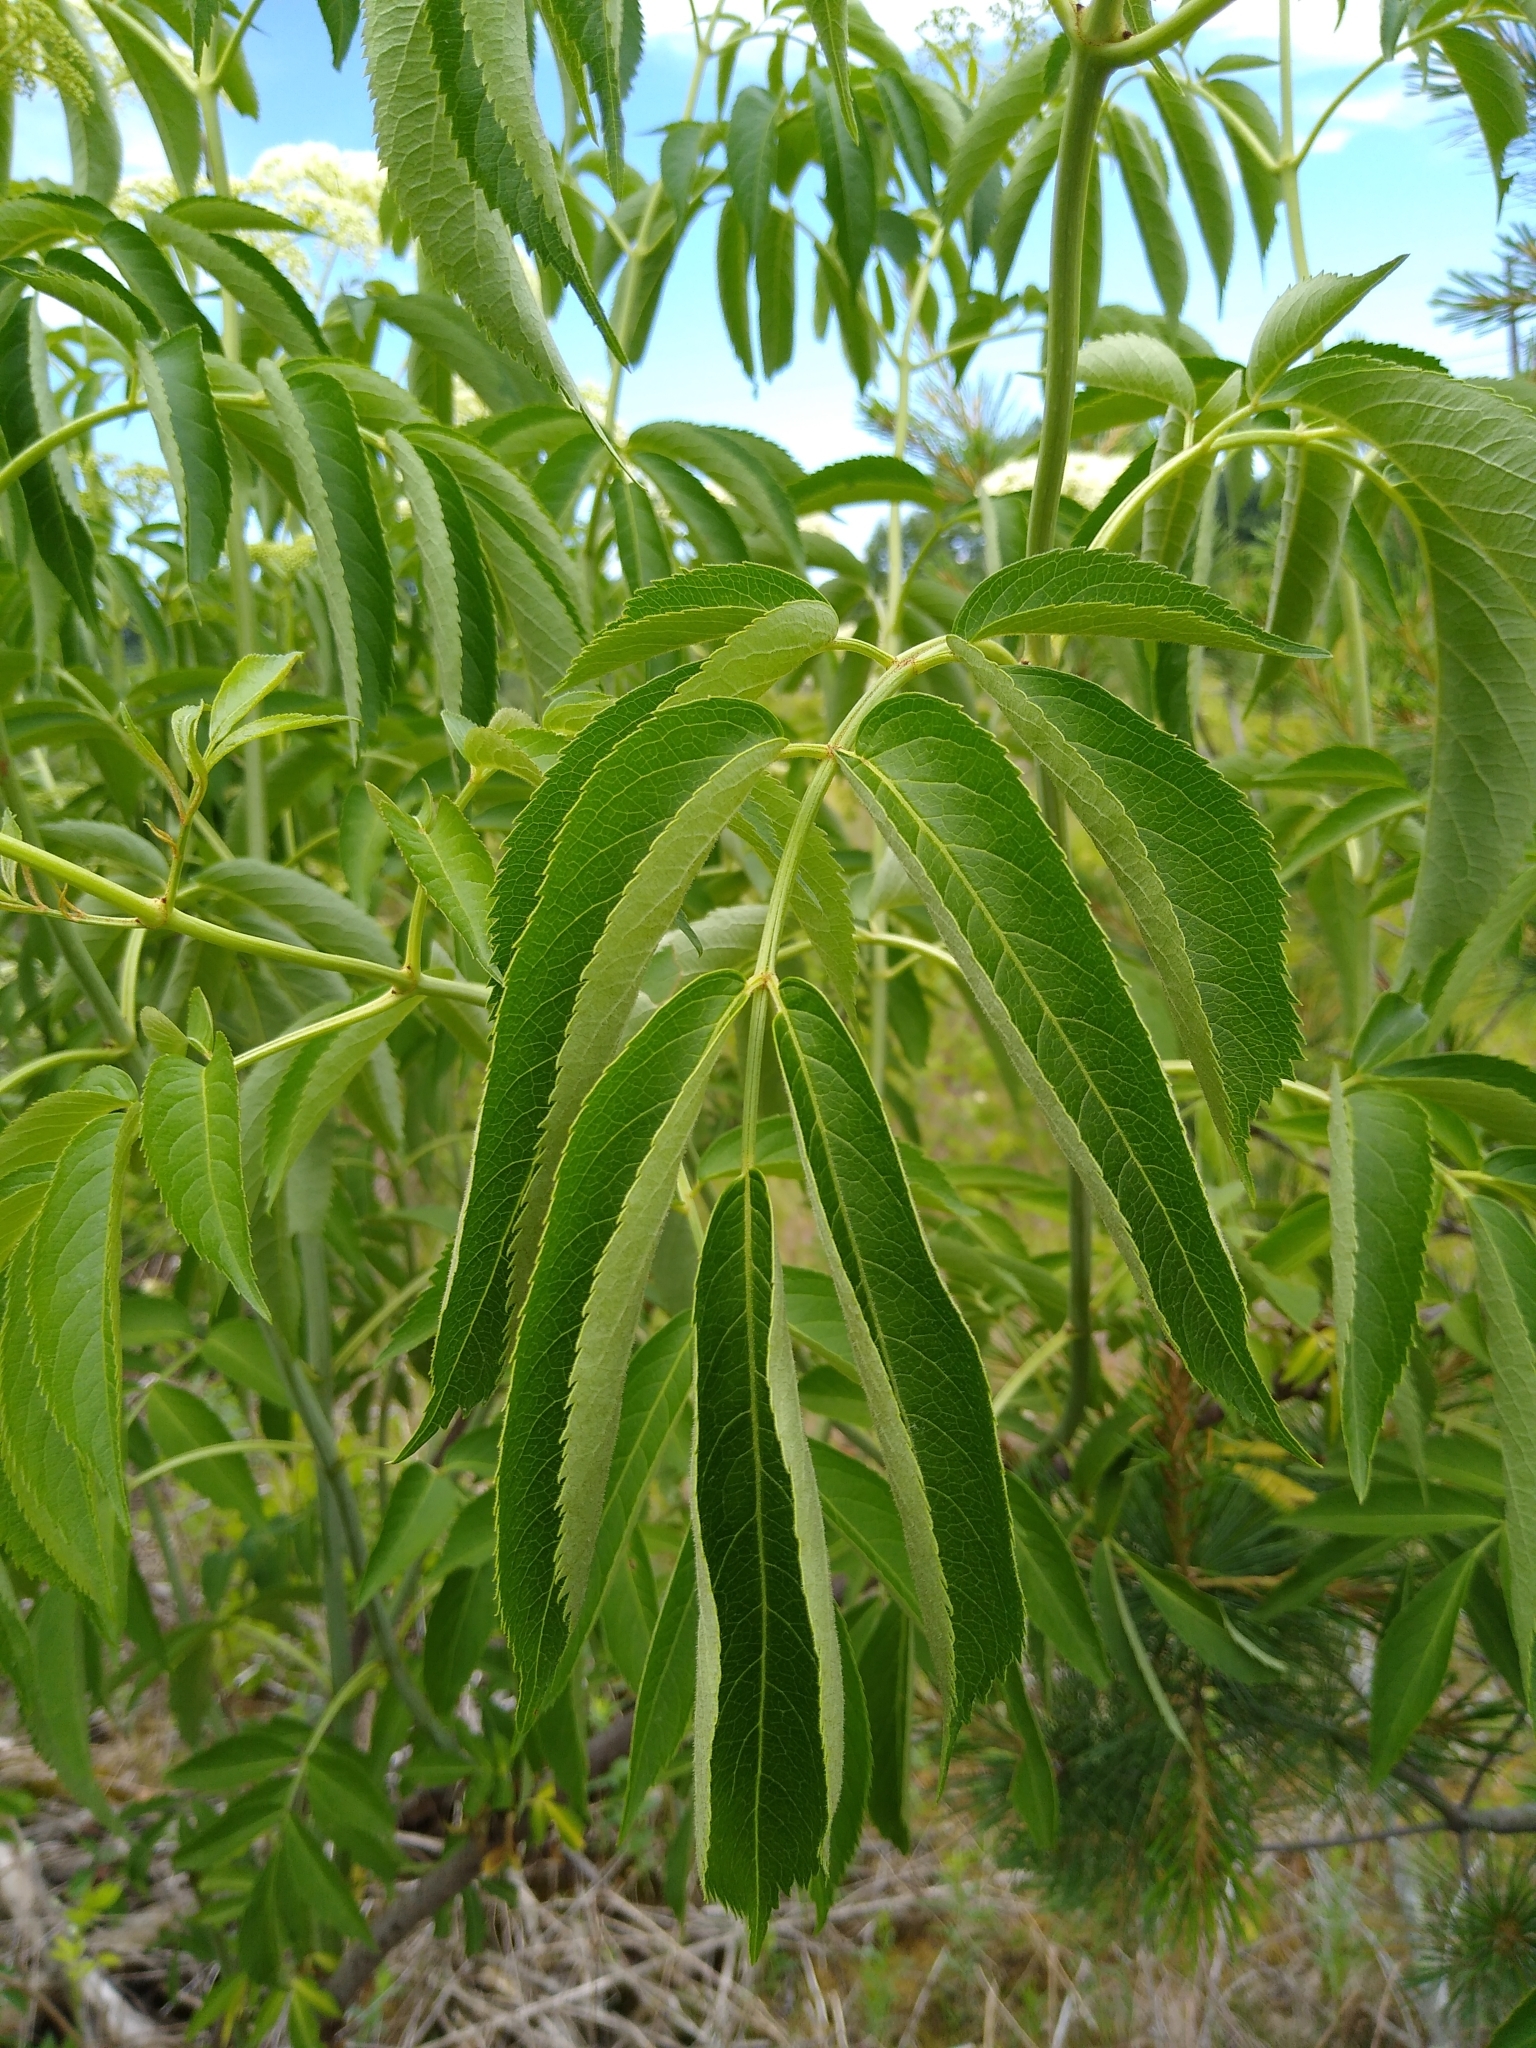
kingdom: Plantae
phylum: Tracheophyta
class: Magnoliopsida
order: Dipsacales
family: Viburnaceae
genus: Sambucus
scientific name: Sambucus canadensis
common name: American elder
